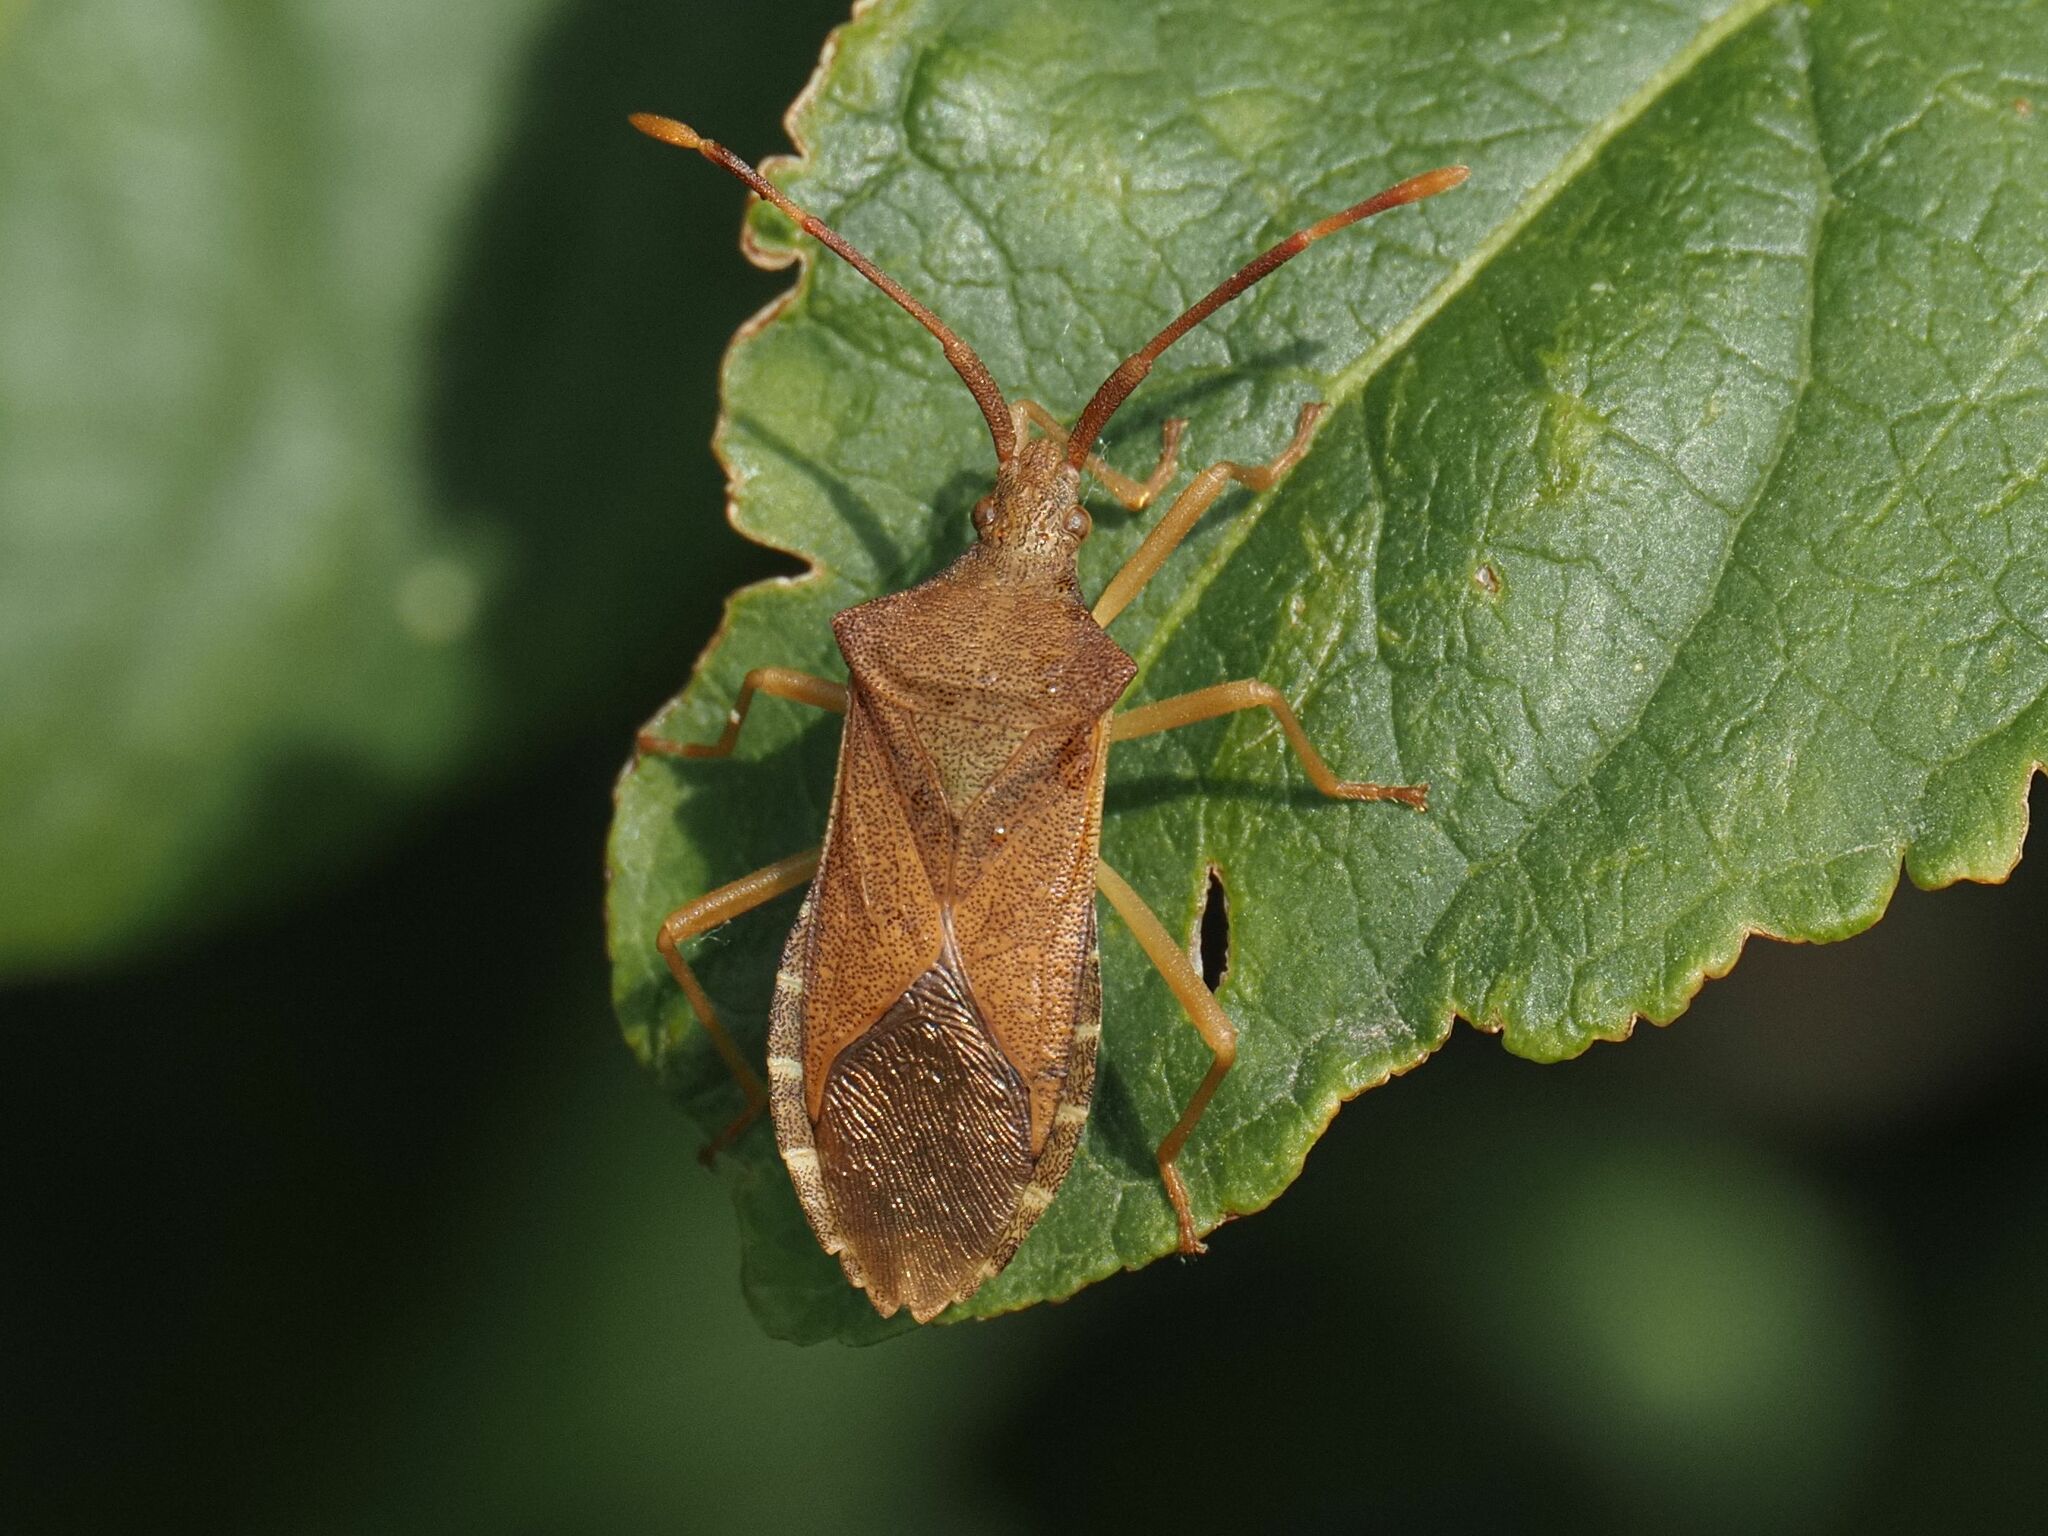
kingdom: Animalia
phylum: Arthropoda
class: Insecta
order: Hemiptera
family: Coreidae
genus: Gonocerus
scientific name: Gonocerus acuteangulatus
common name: Box bug
